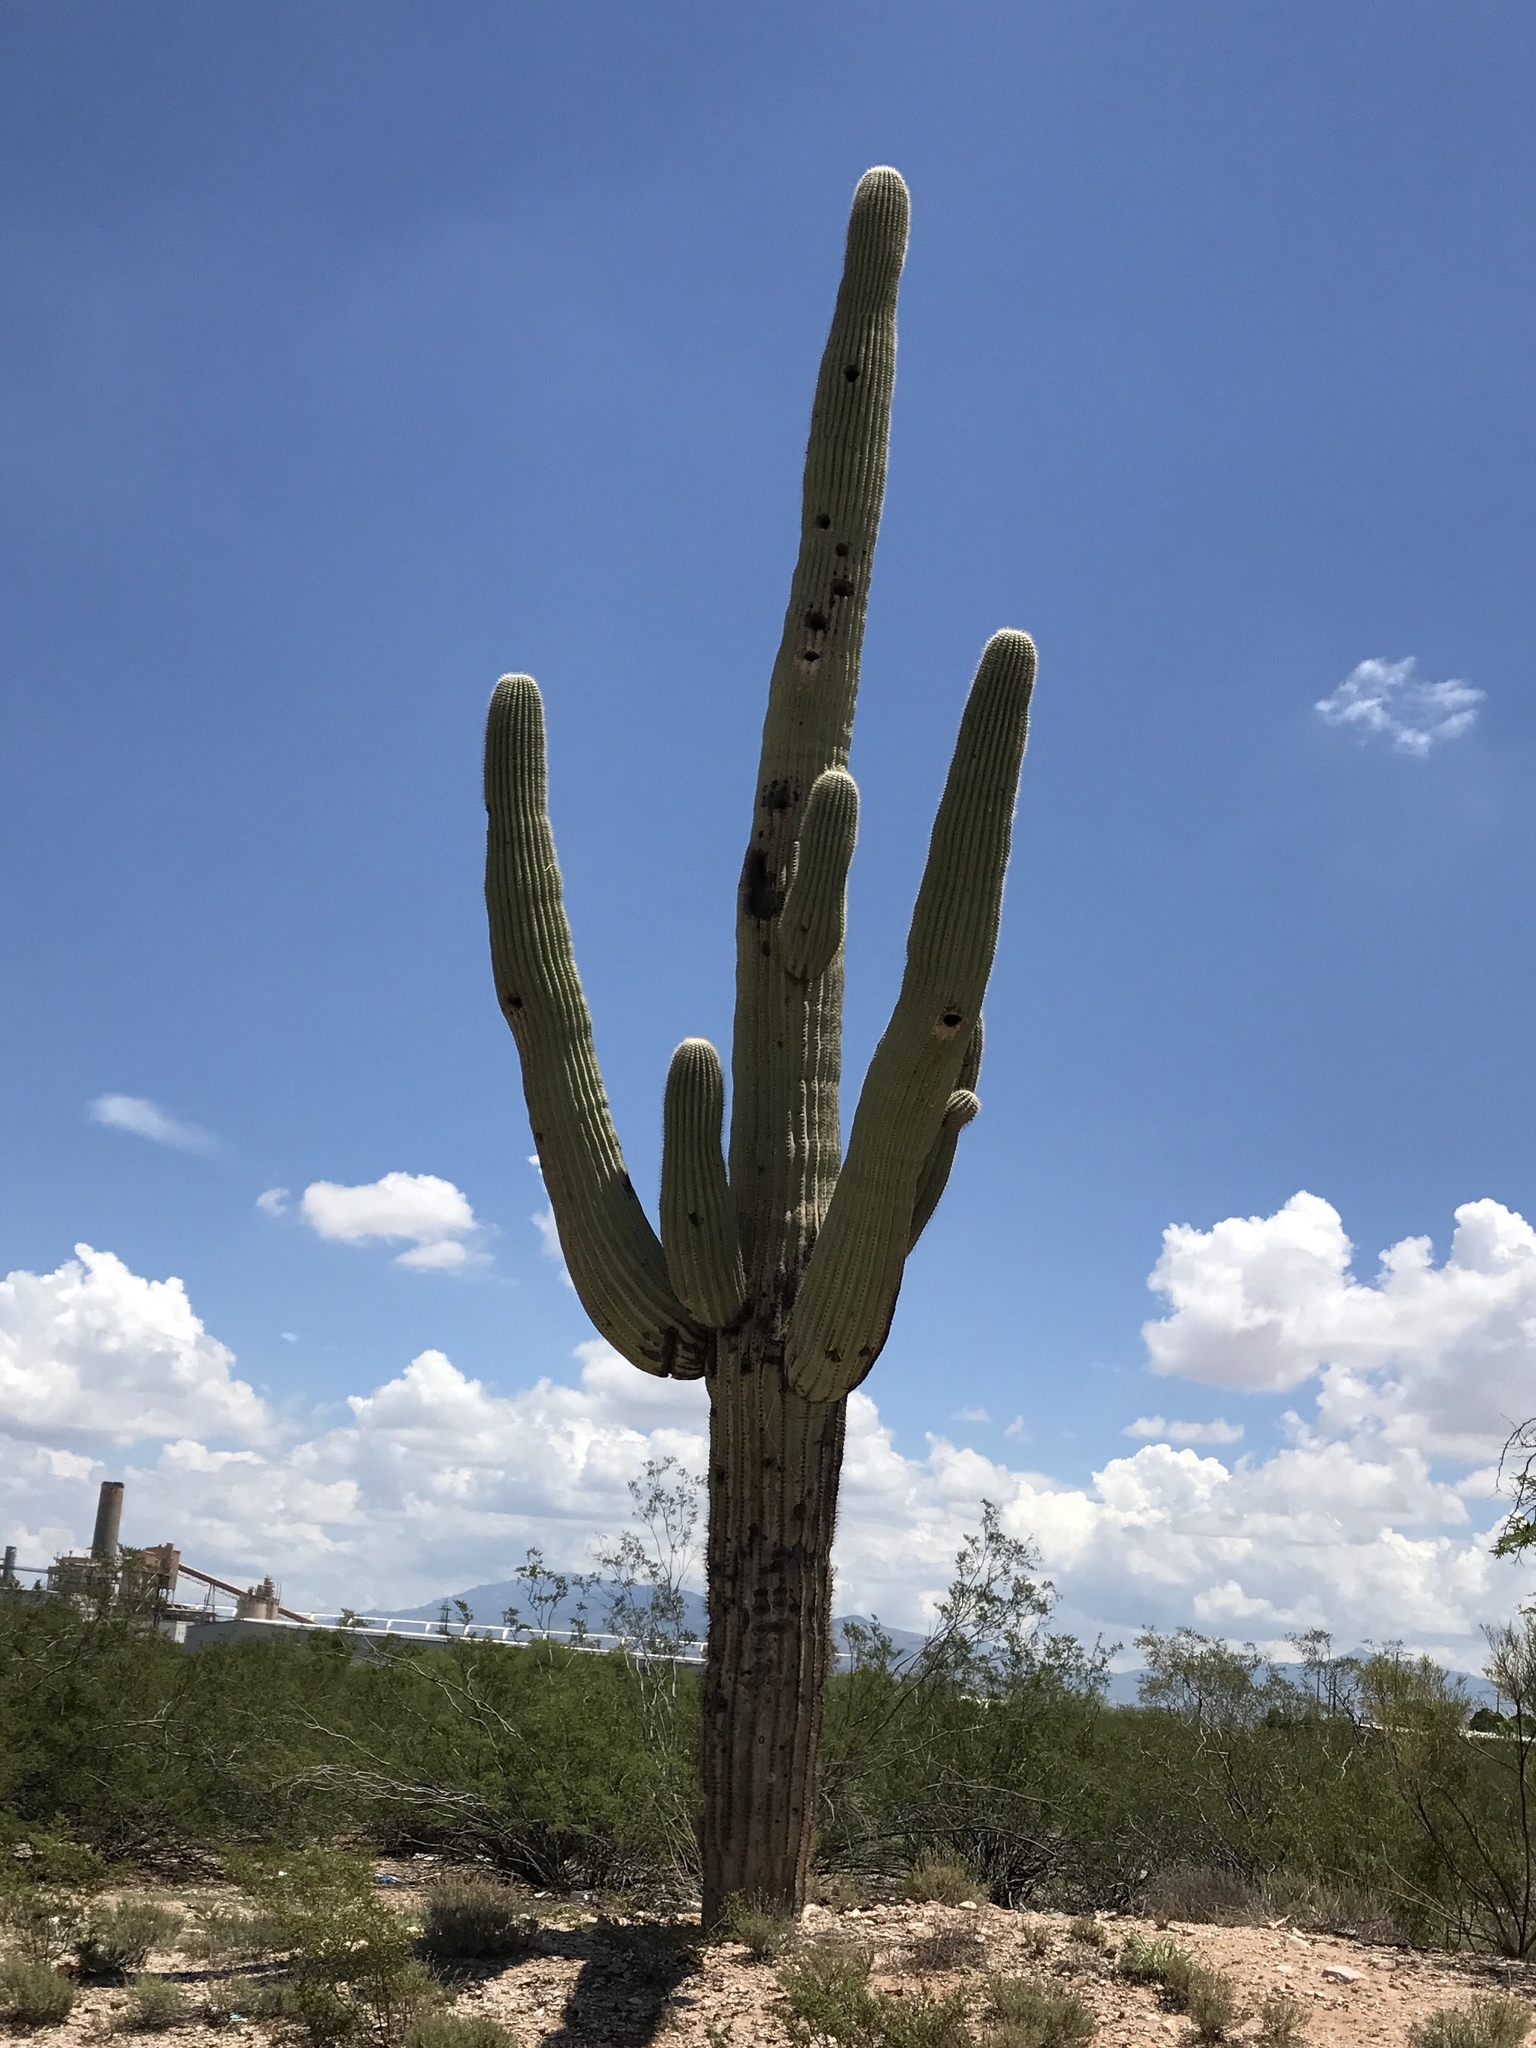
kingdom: Plantae
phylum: Tracheophyta
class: Magnoliopsida
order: Caryophyllales
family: Cactaceae
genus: Carnegiea
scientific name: Carnegiea gigantea
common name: Saguaro
